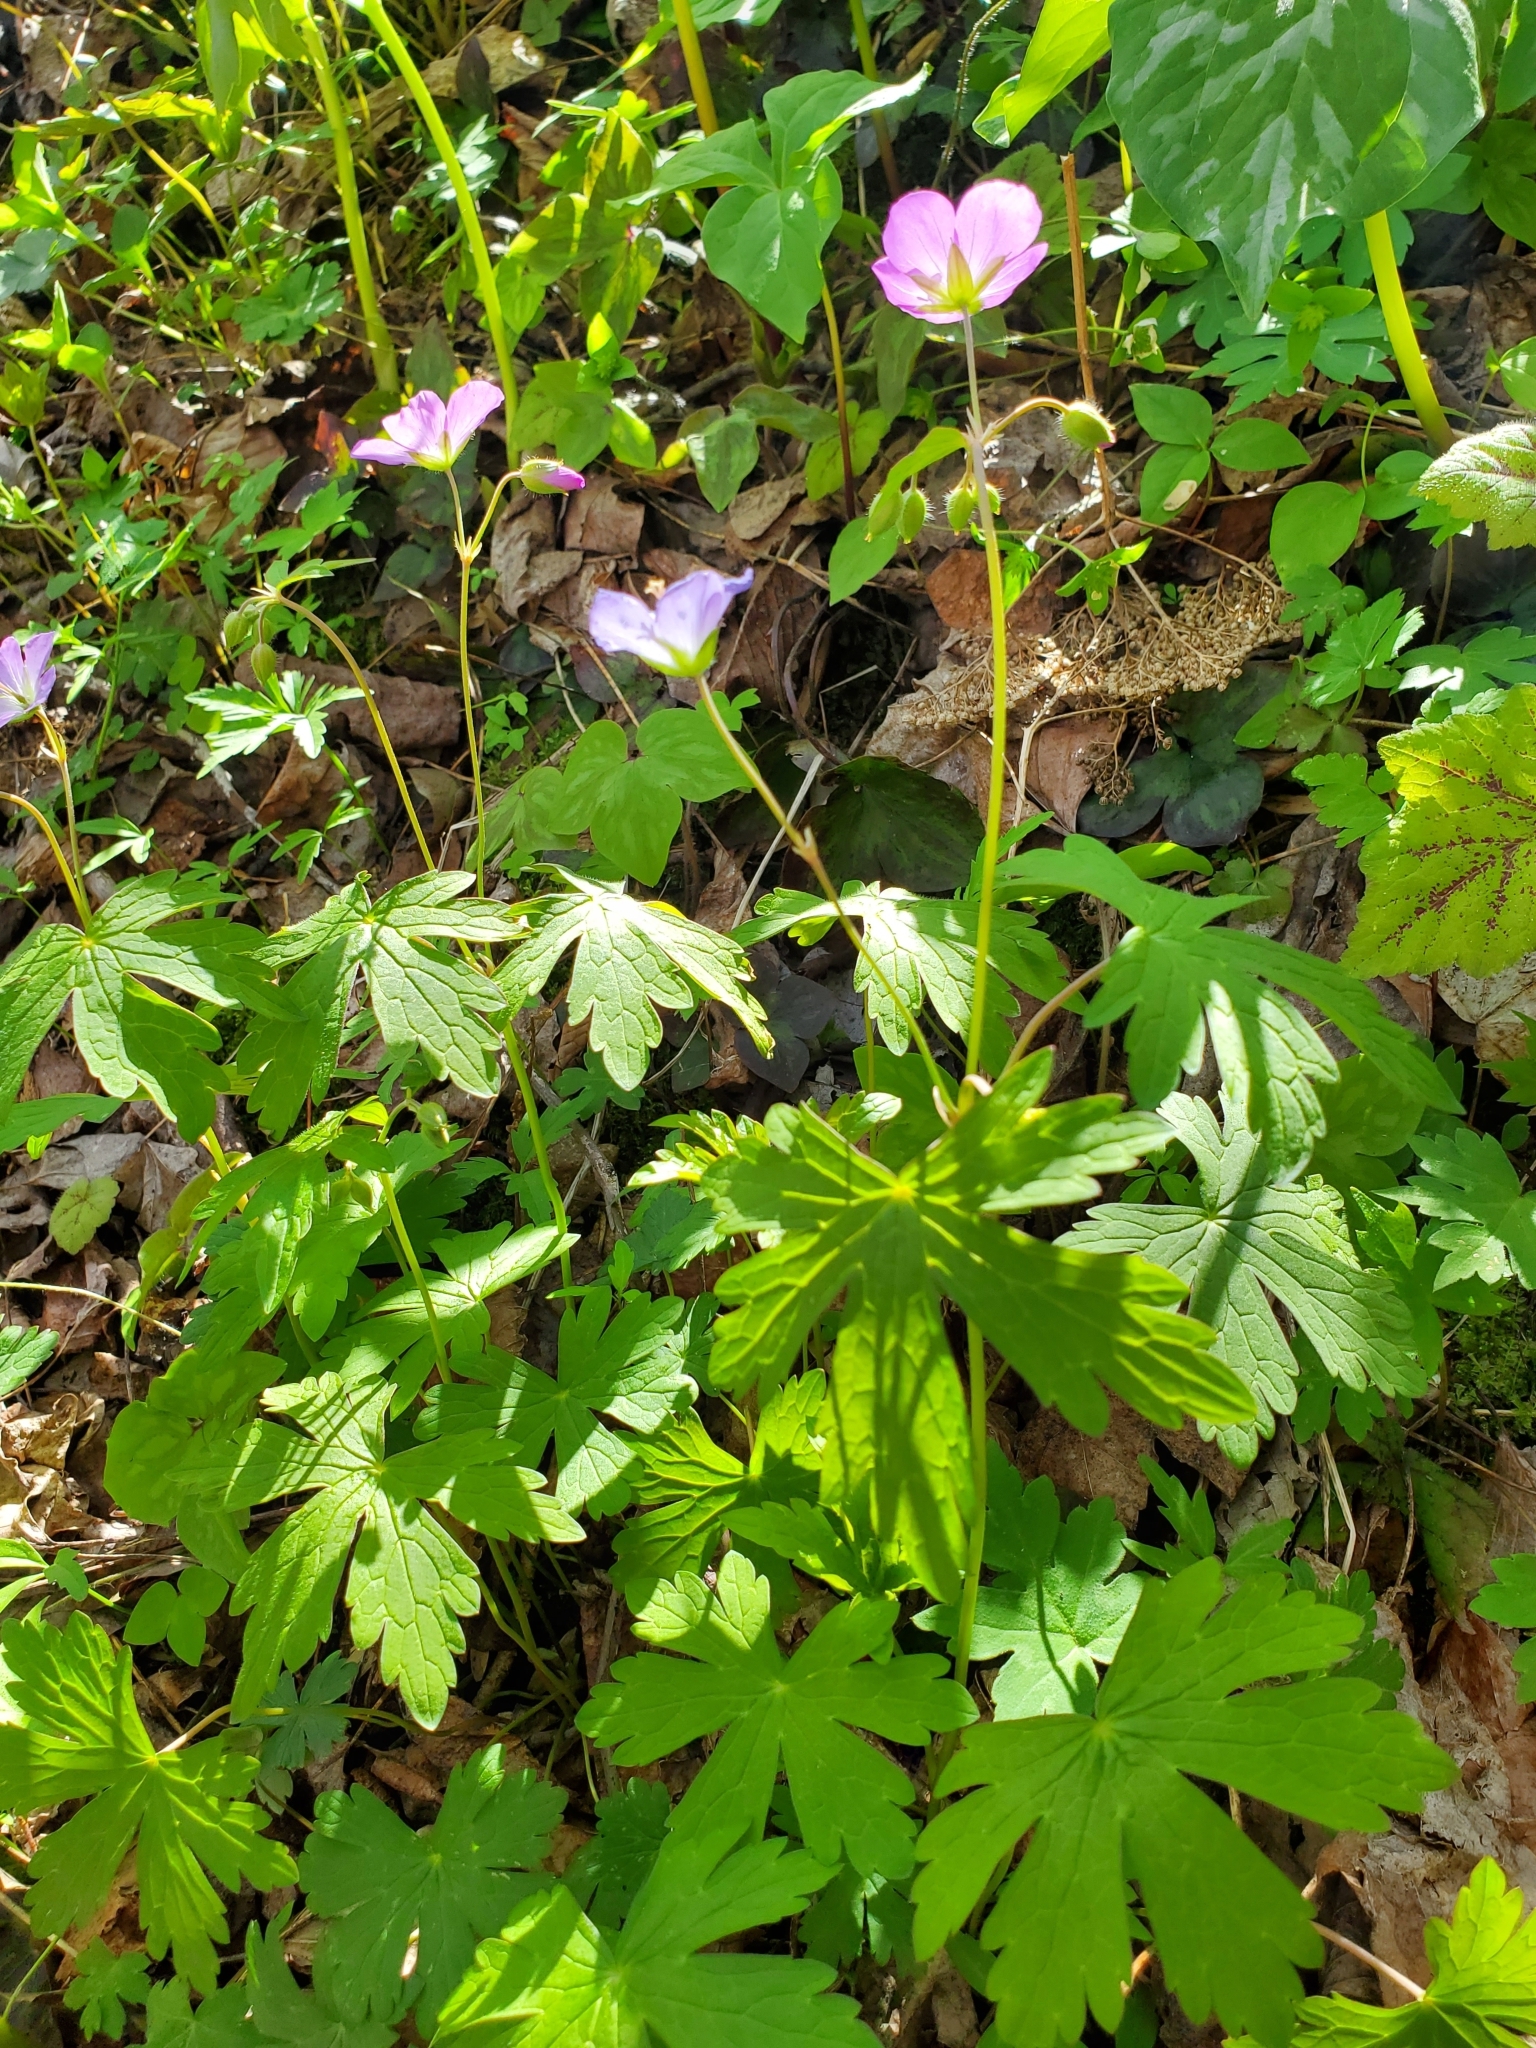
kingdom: Plantae
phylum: Tracheophyta
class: Magnoliopsida
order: Geraniales
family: Geraniaceae
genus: Geranium
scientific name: Geranium maculatum
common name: Spotted geranium
